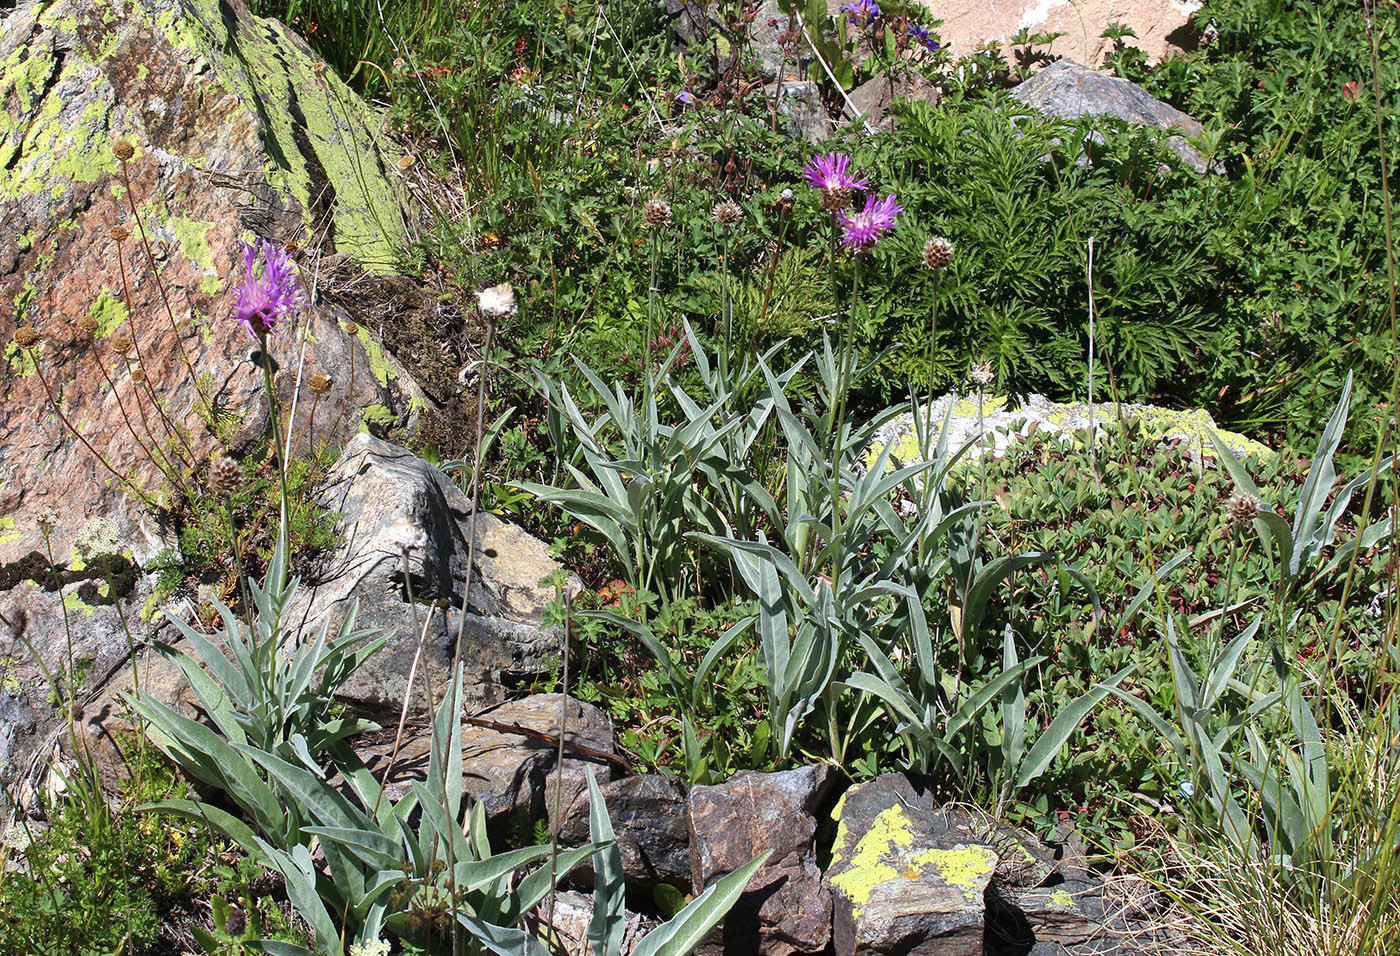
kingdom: Plantae
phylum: Tracheophyta
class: Magnoliopsida
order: Asterales
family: Asteraceae
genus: Psephellus
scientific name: Psephellus vvedenskii
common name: Solnechnik
